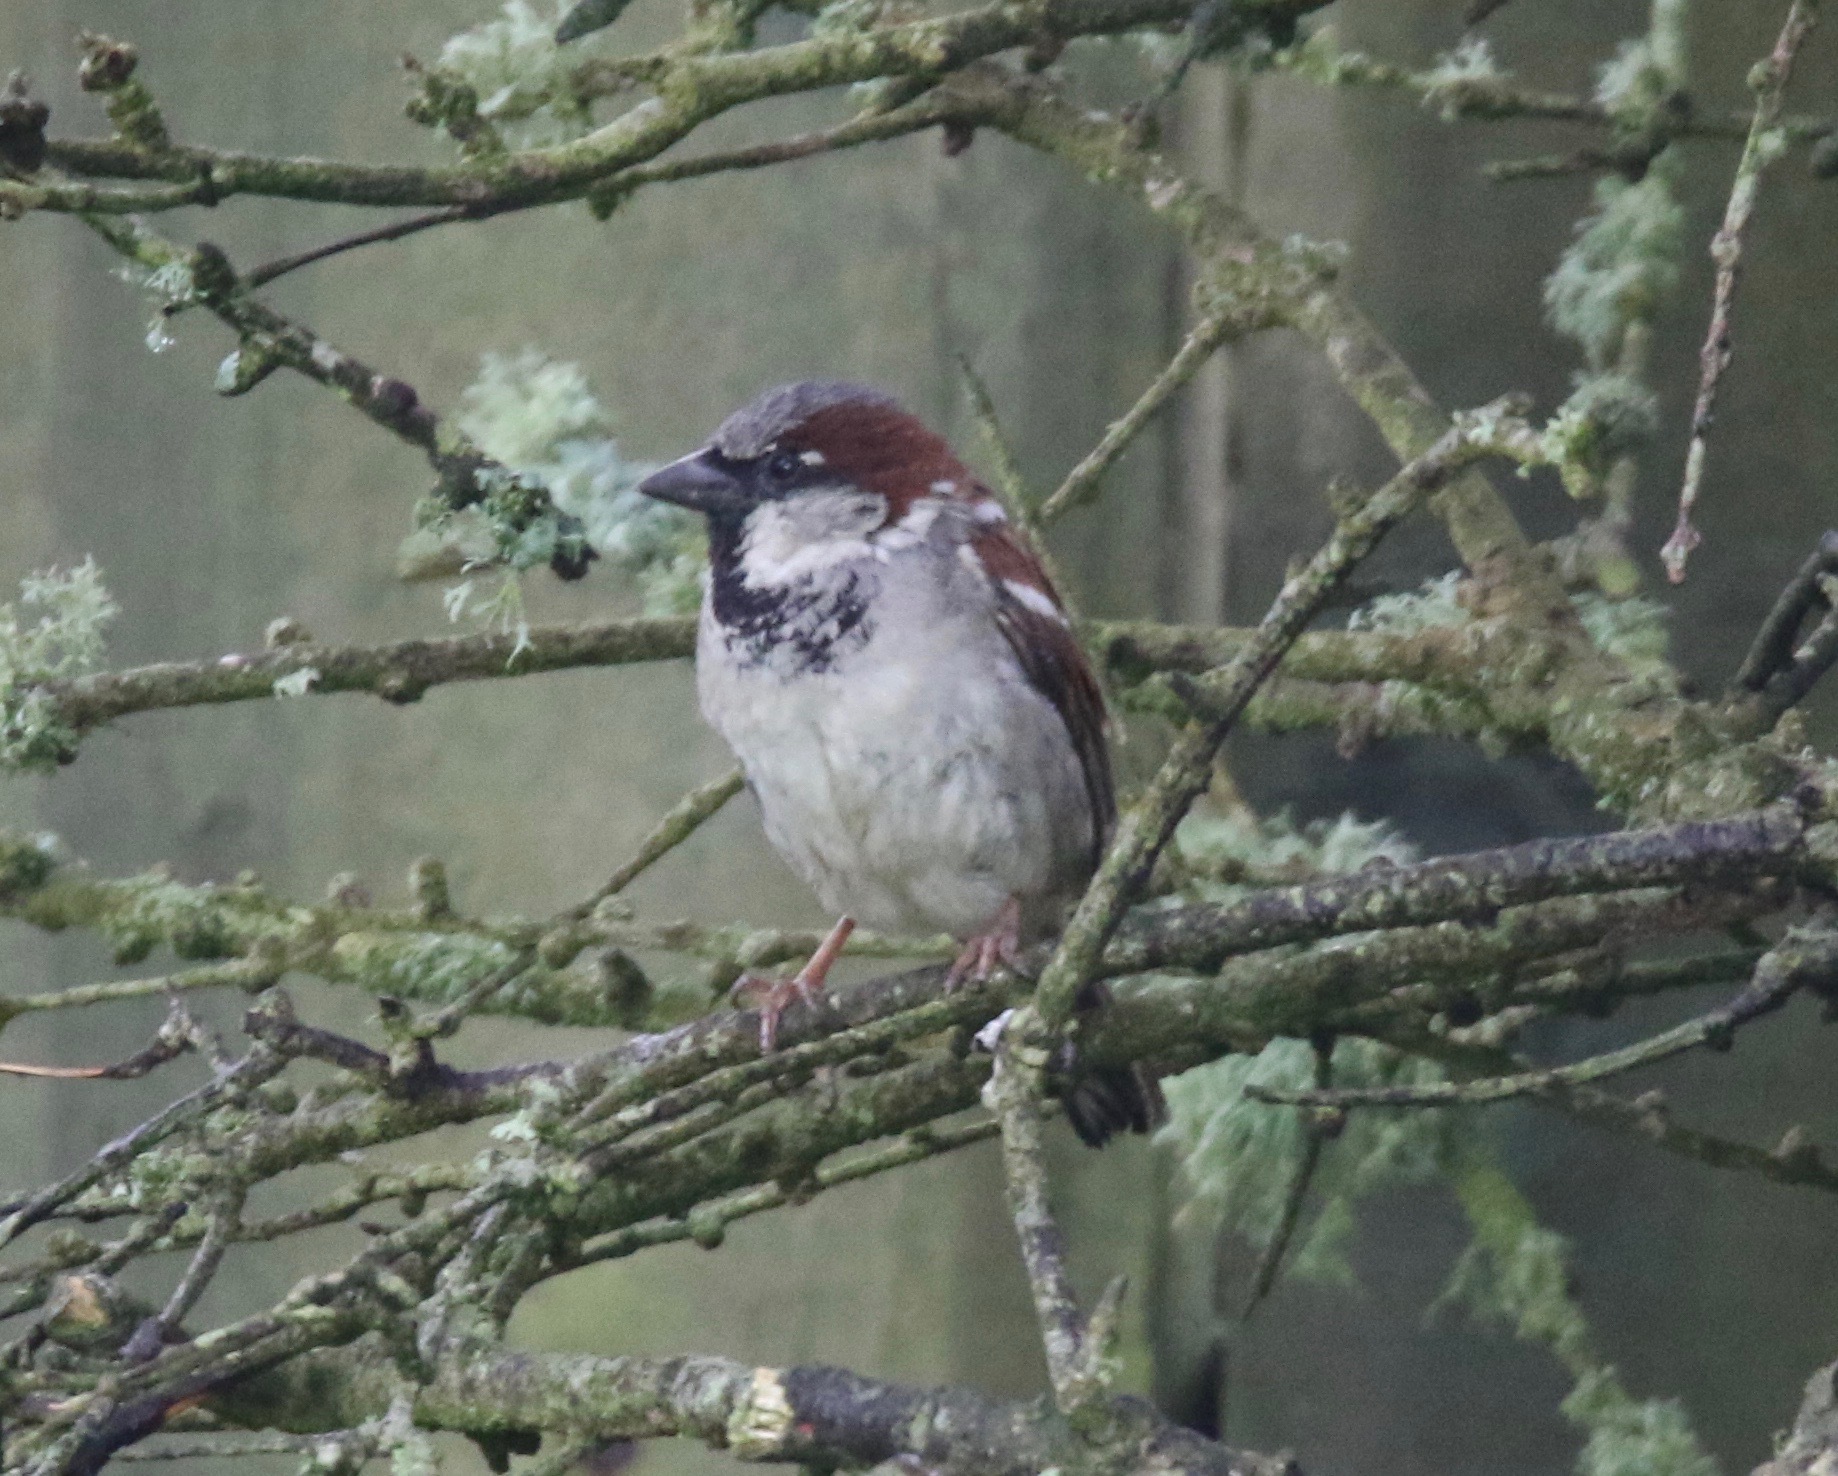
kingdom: Animalia
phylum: Chordata
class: Aves
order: Passeriformes
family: Passeridae
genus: Passer
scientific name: Passer domesticus
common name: House sparrow
